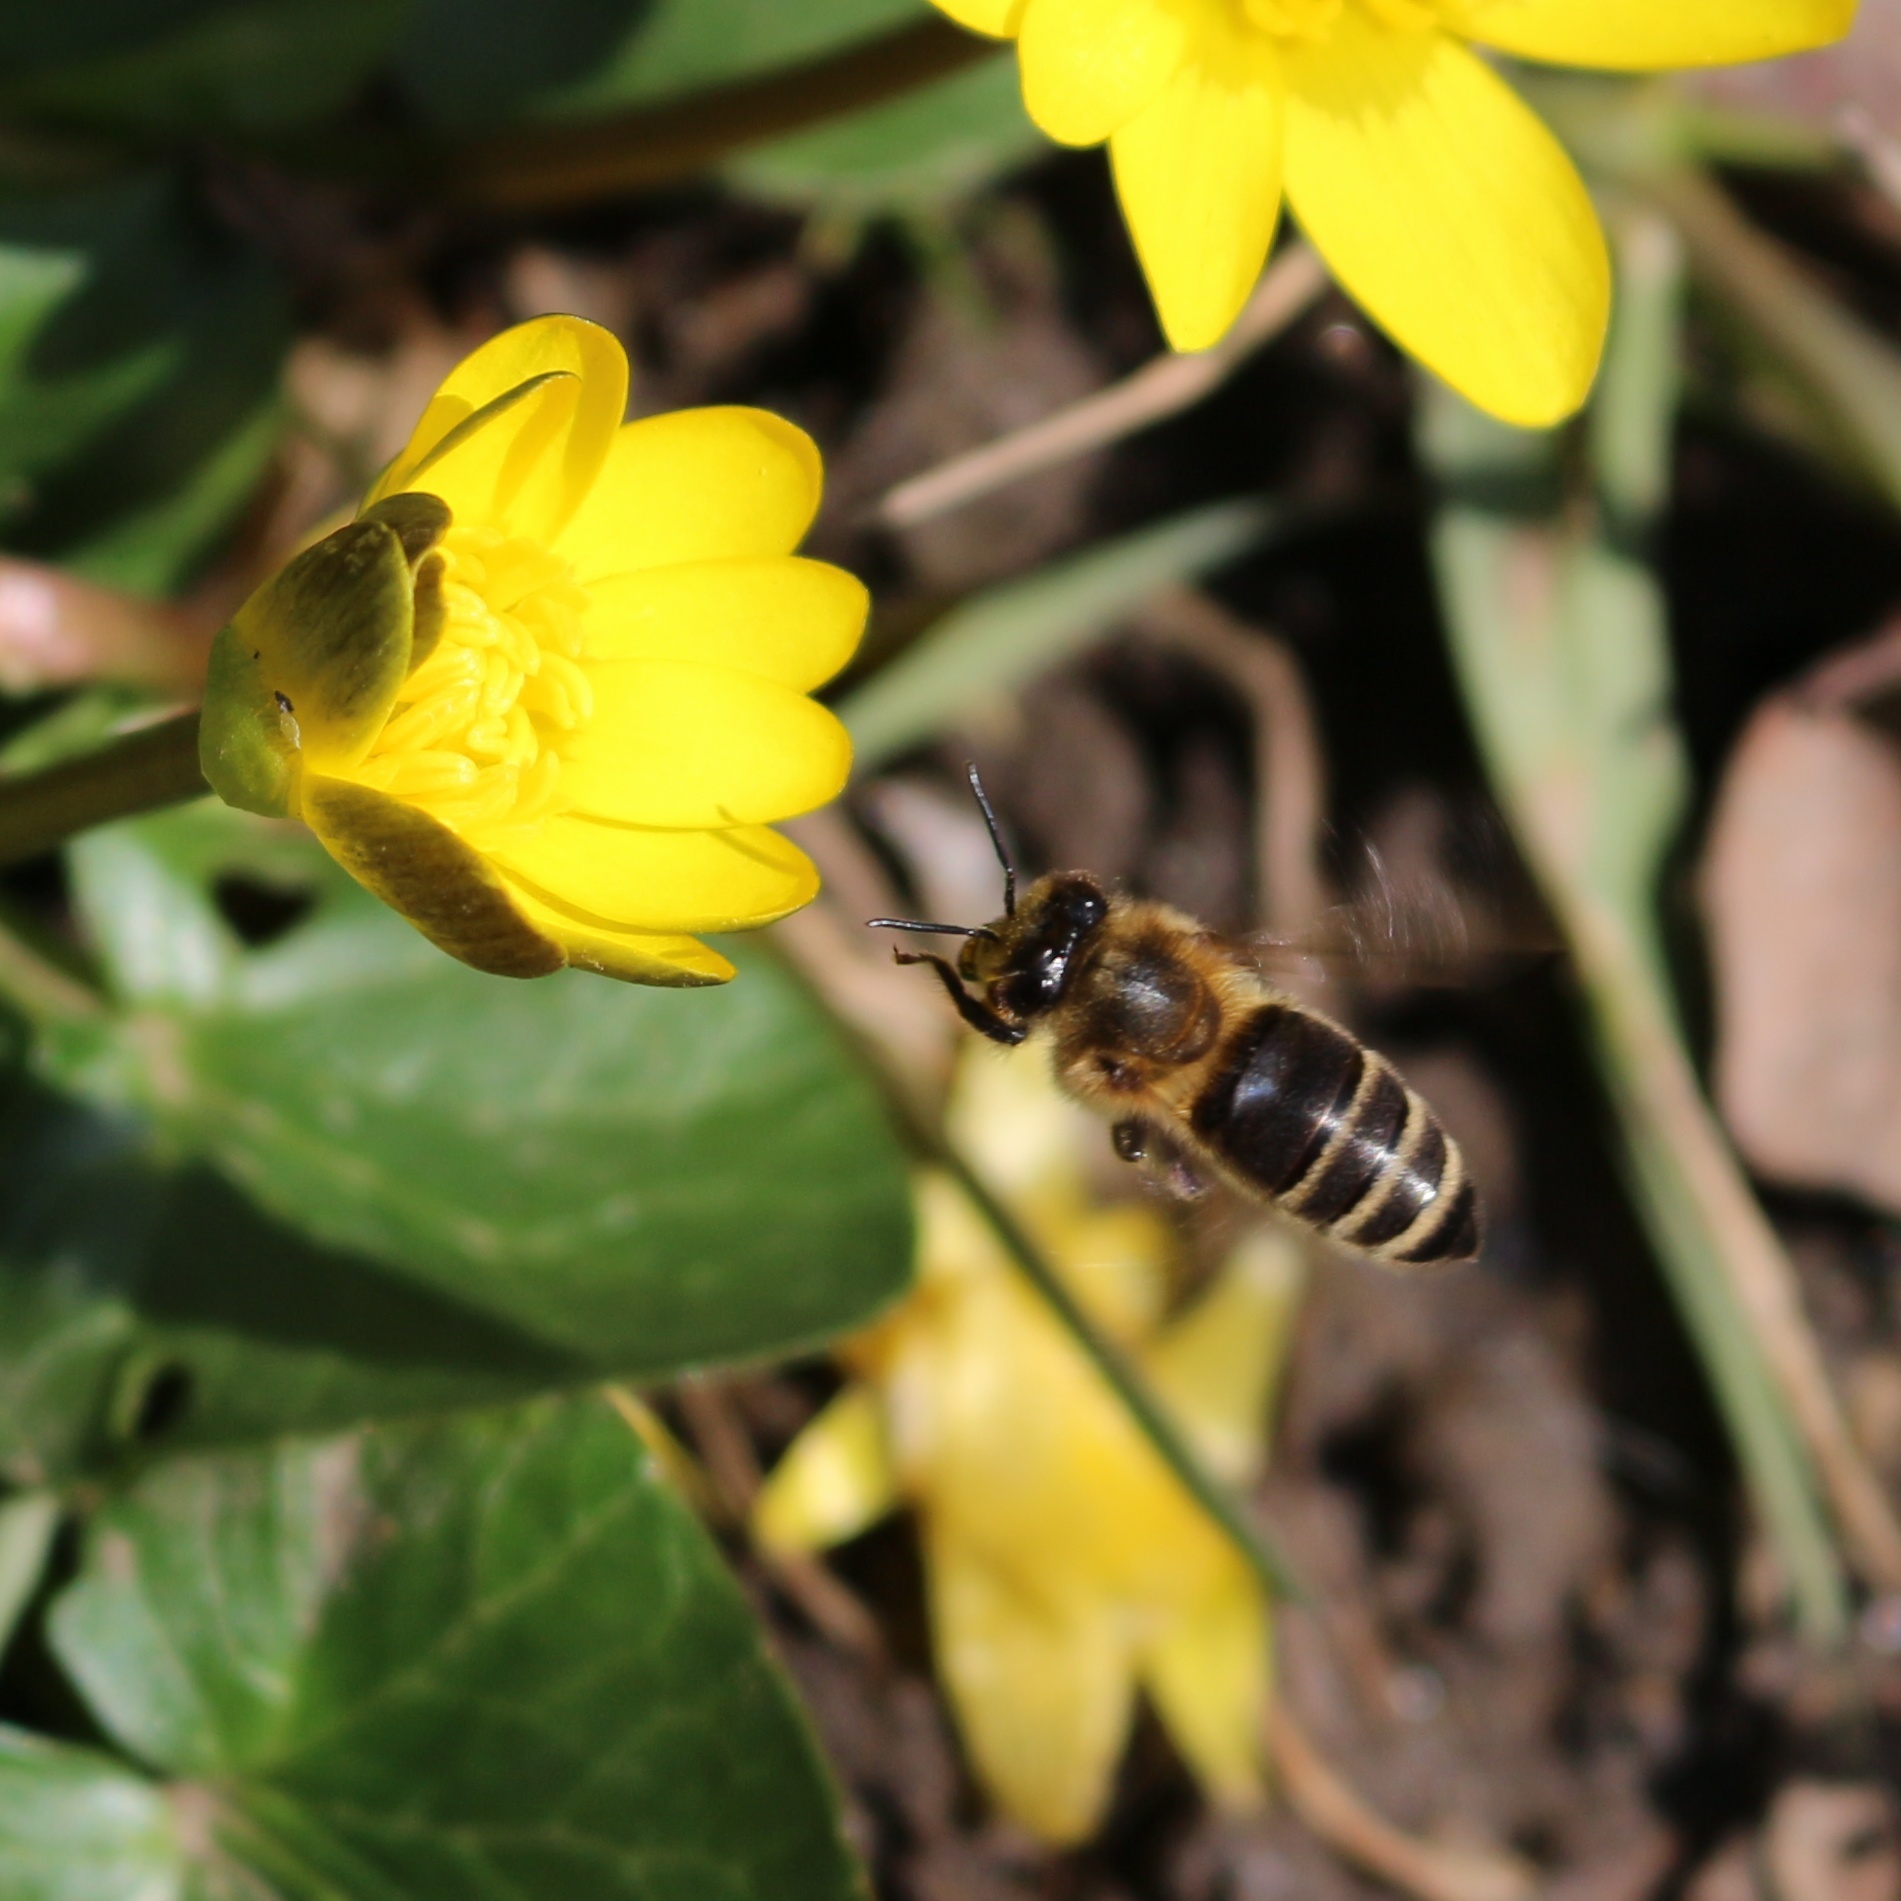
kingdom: Animalia
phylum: Arthropoda
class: Insecta
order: Hymenoptera
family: Apidae
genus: Apis
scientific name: Apis mellifera
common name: Honey bee
